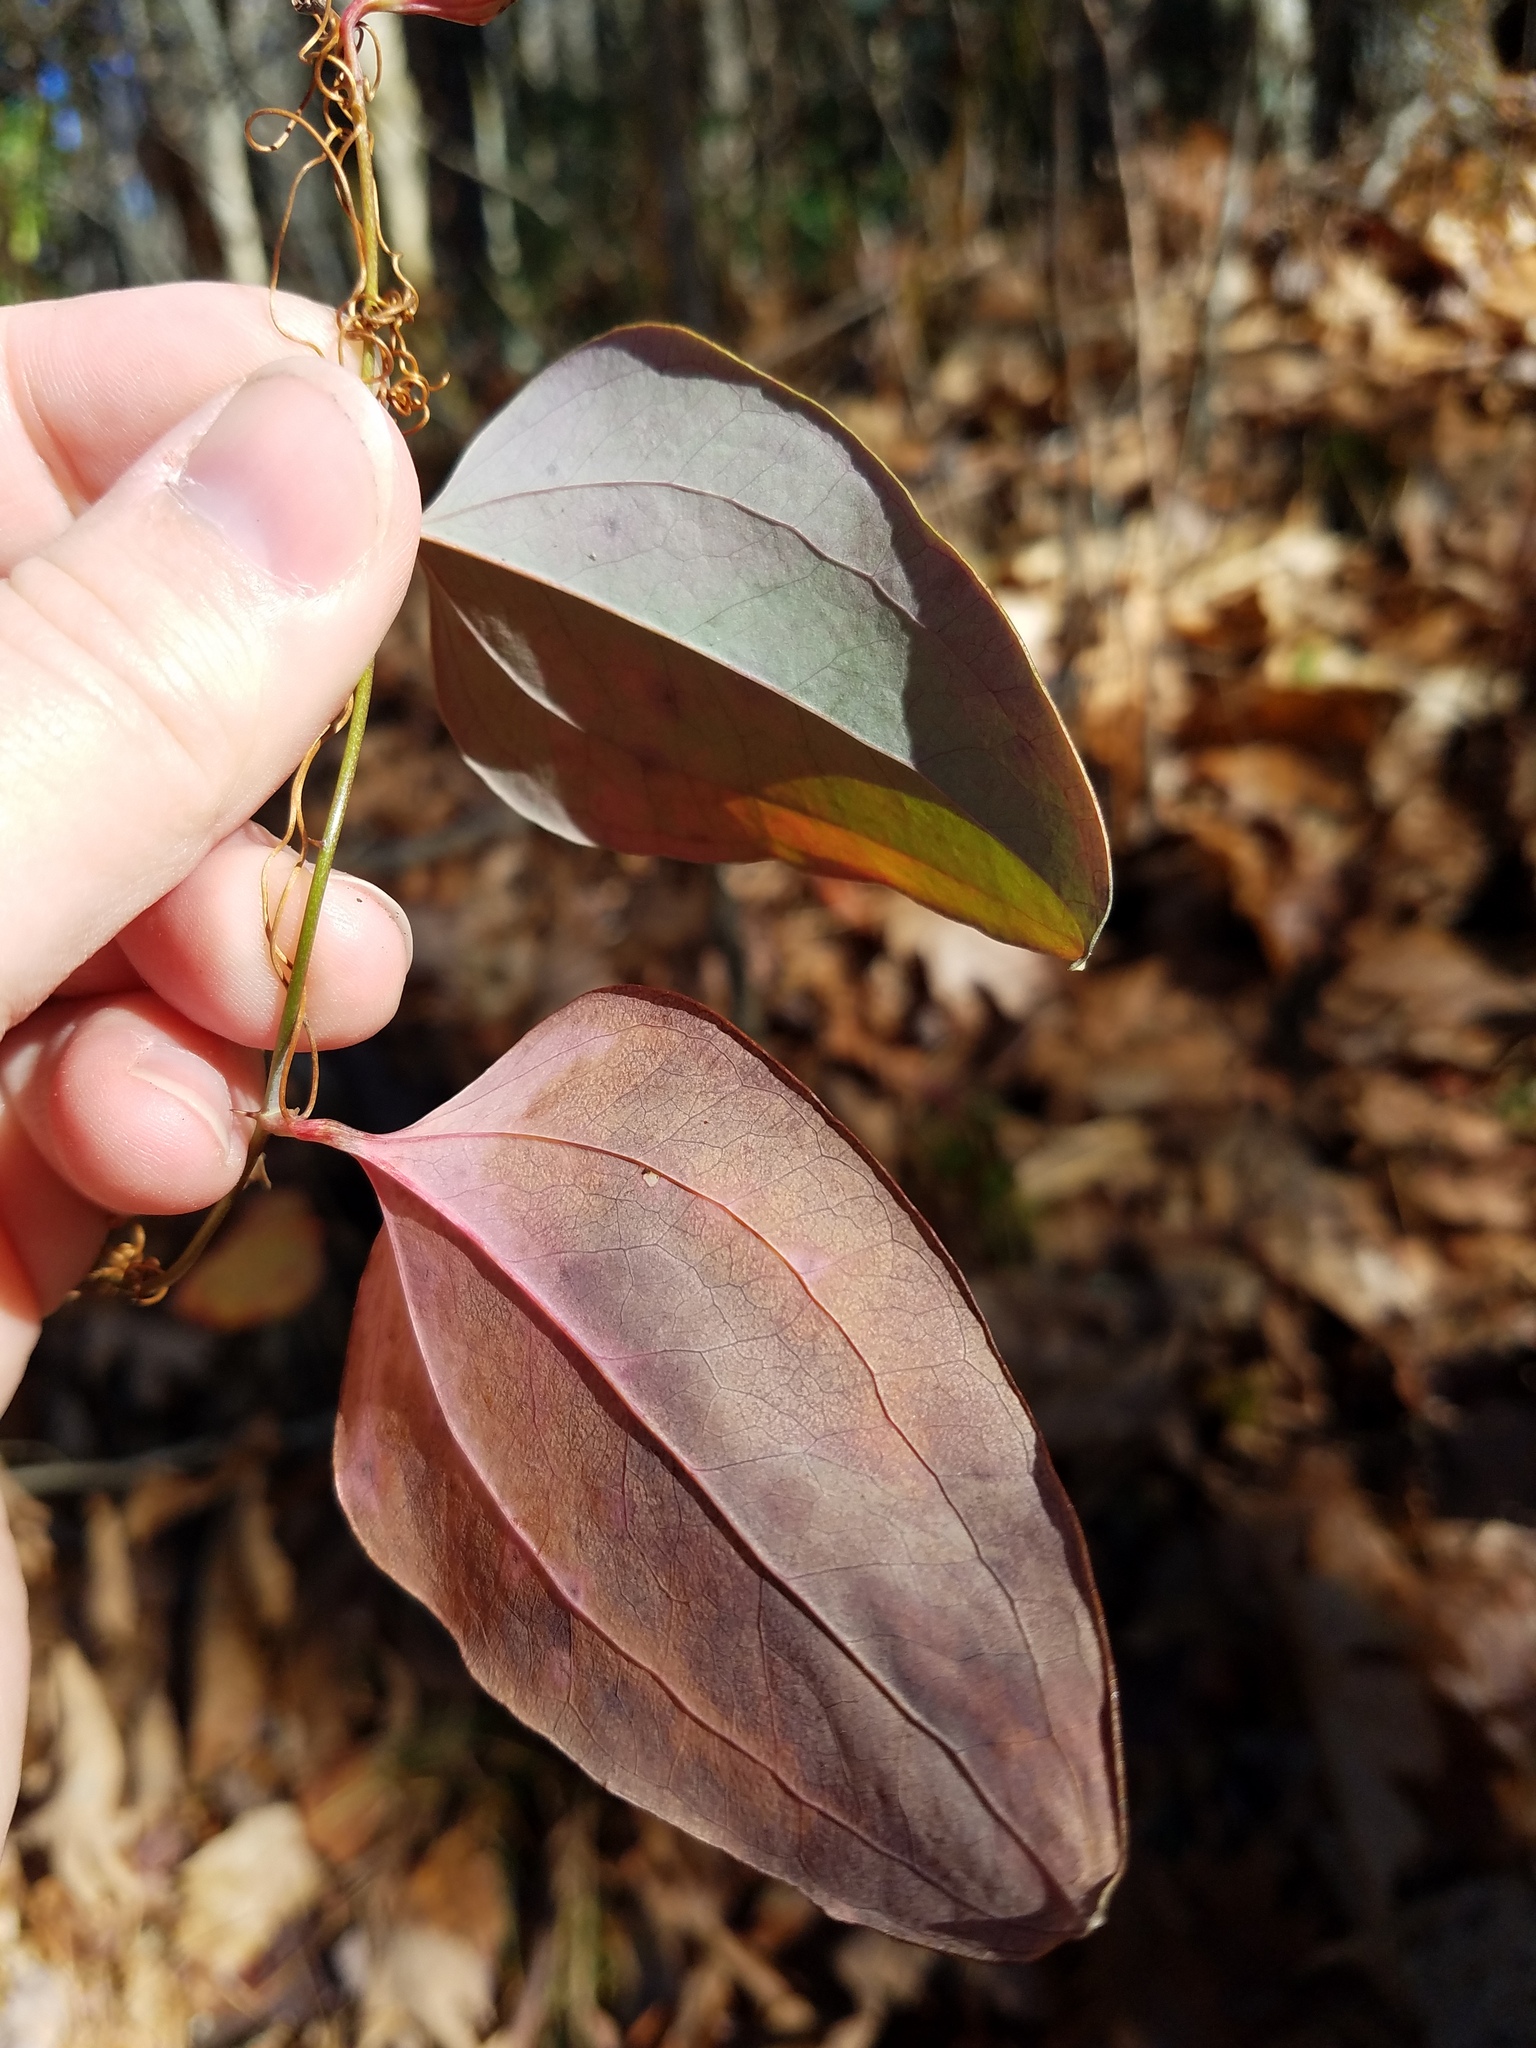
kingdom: Plantae
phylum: Tracheophyta
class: Liliopsida
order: Liliales
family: Smilacaceae
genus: Smilax
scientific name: Smilax glauca
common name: Cat greenbrier
